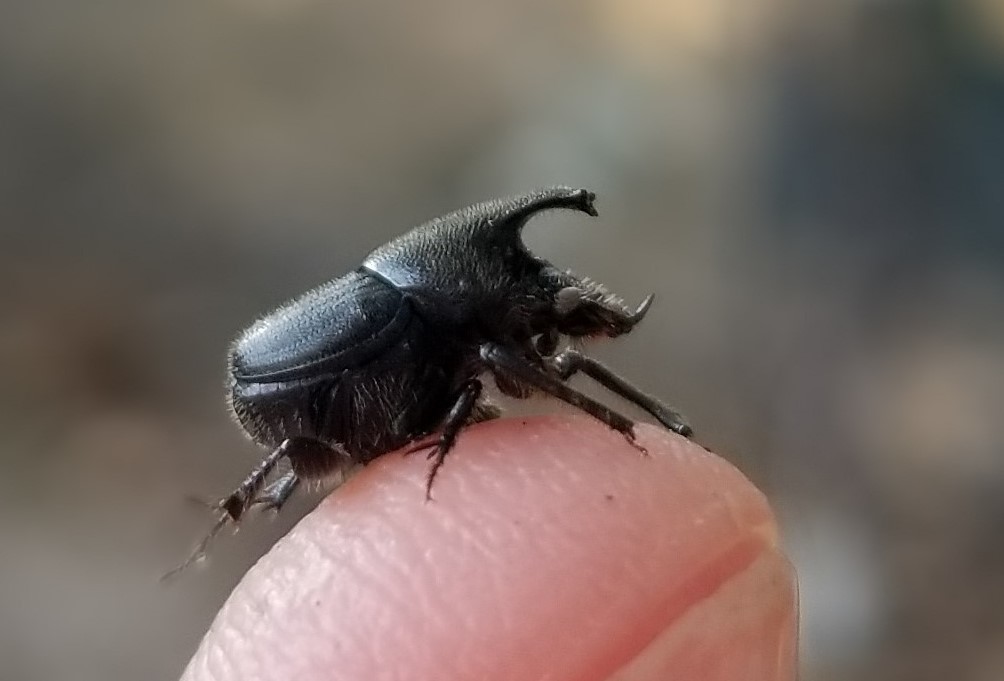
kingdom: Animalia
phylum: Arthropoda
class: Insecta
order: Coleoptera
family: Scarabaeidae
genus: Onthophagus
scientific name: Onthophagus hecate
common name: Scooped scarab
